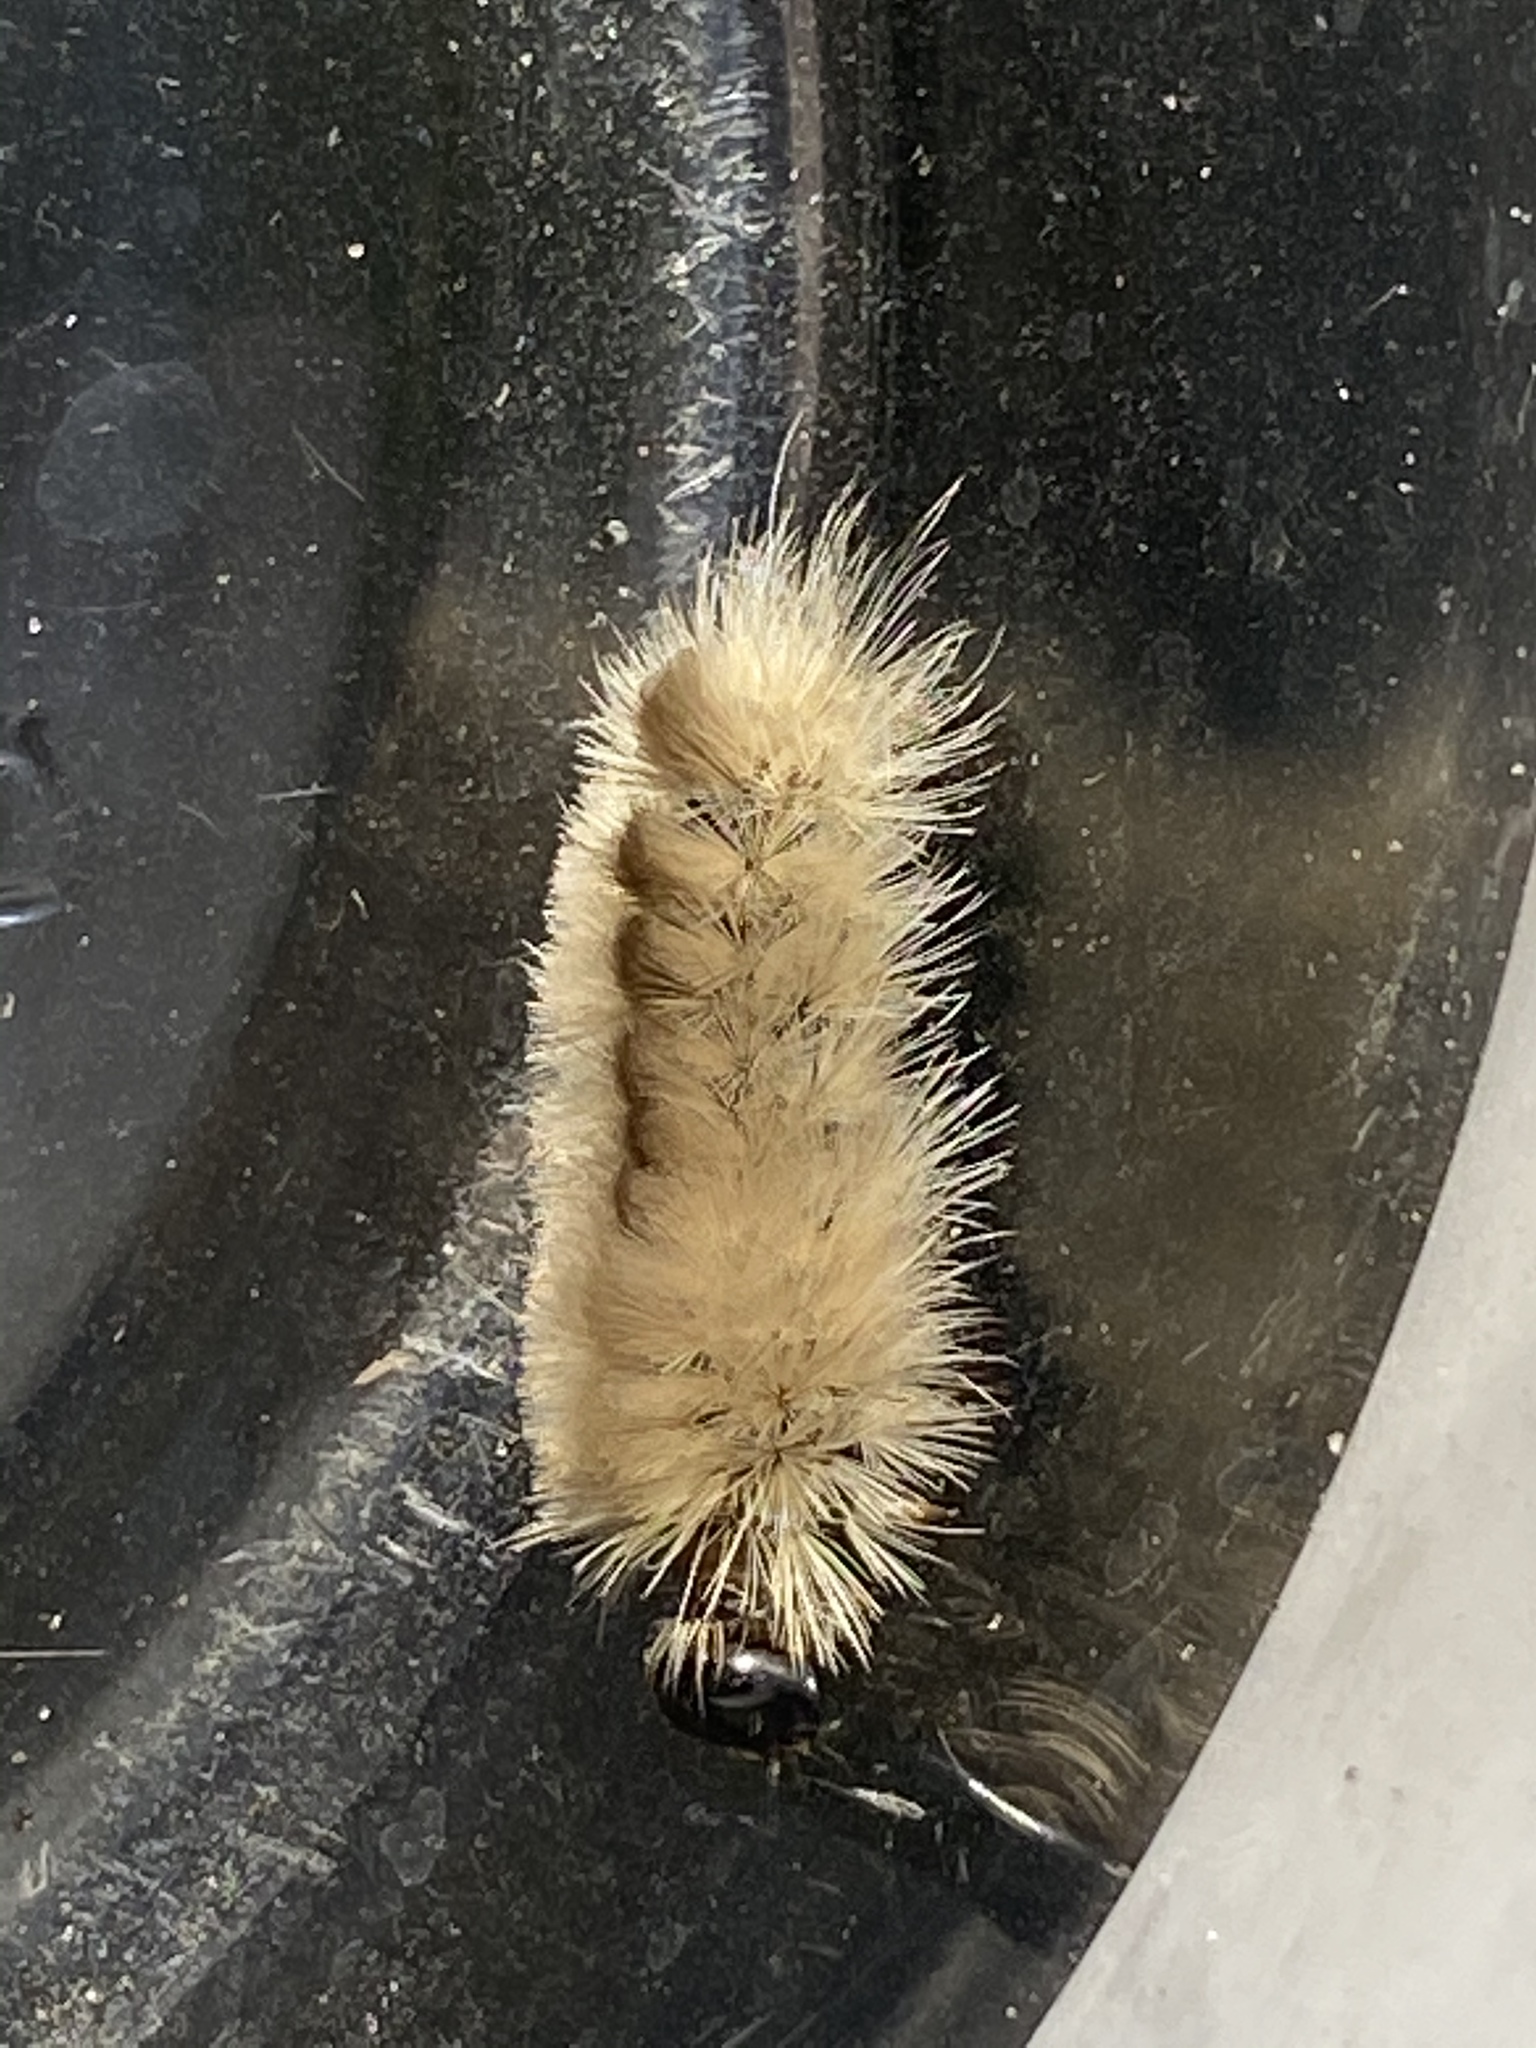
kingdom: Animalia
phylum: Arthropoda
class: Insecta
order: Lepidoptera
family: Erebidae
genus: Halysidota
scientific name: Halysidota tessellaris
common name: Banded tussock moth
